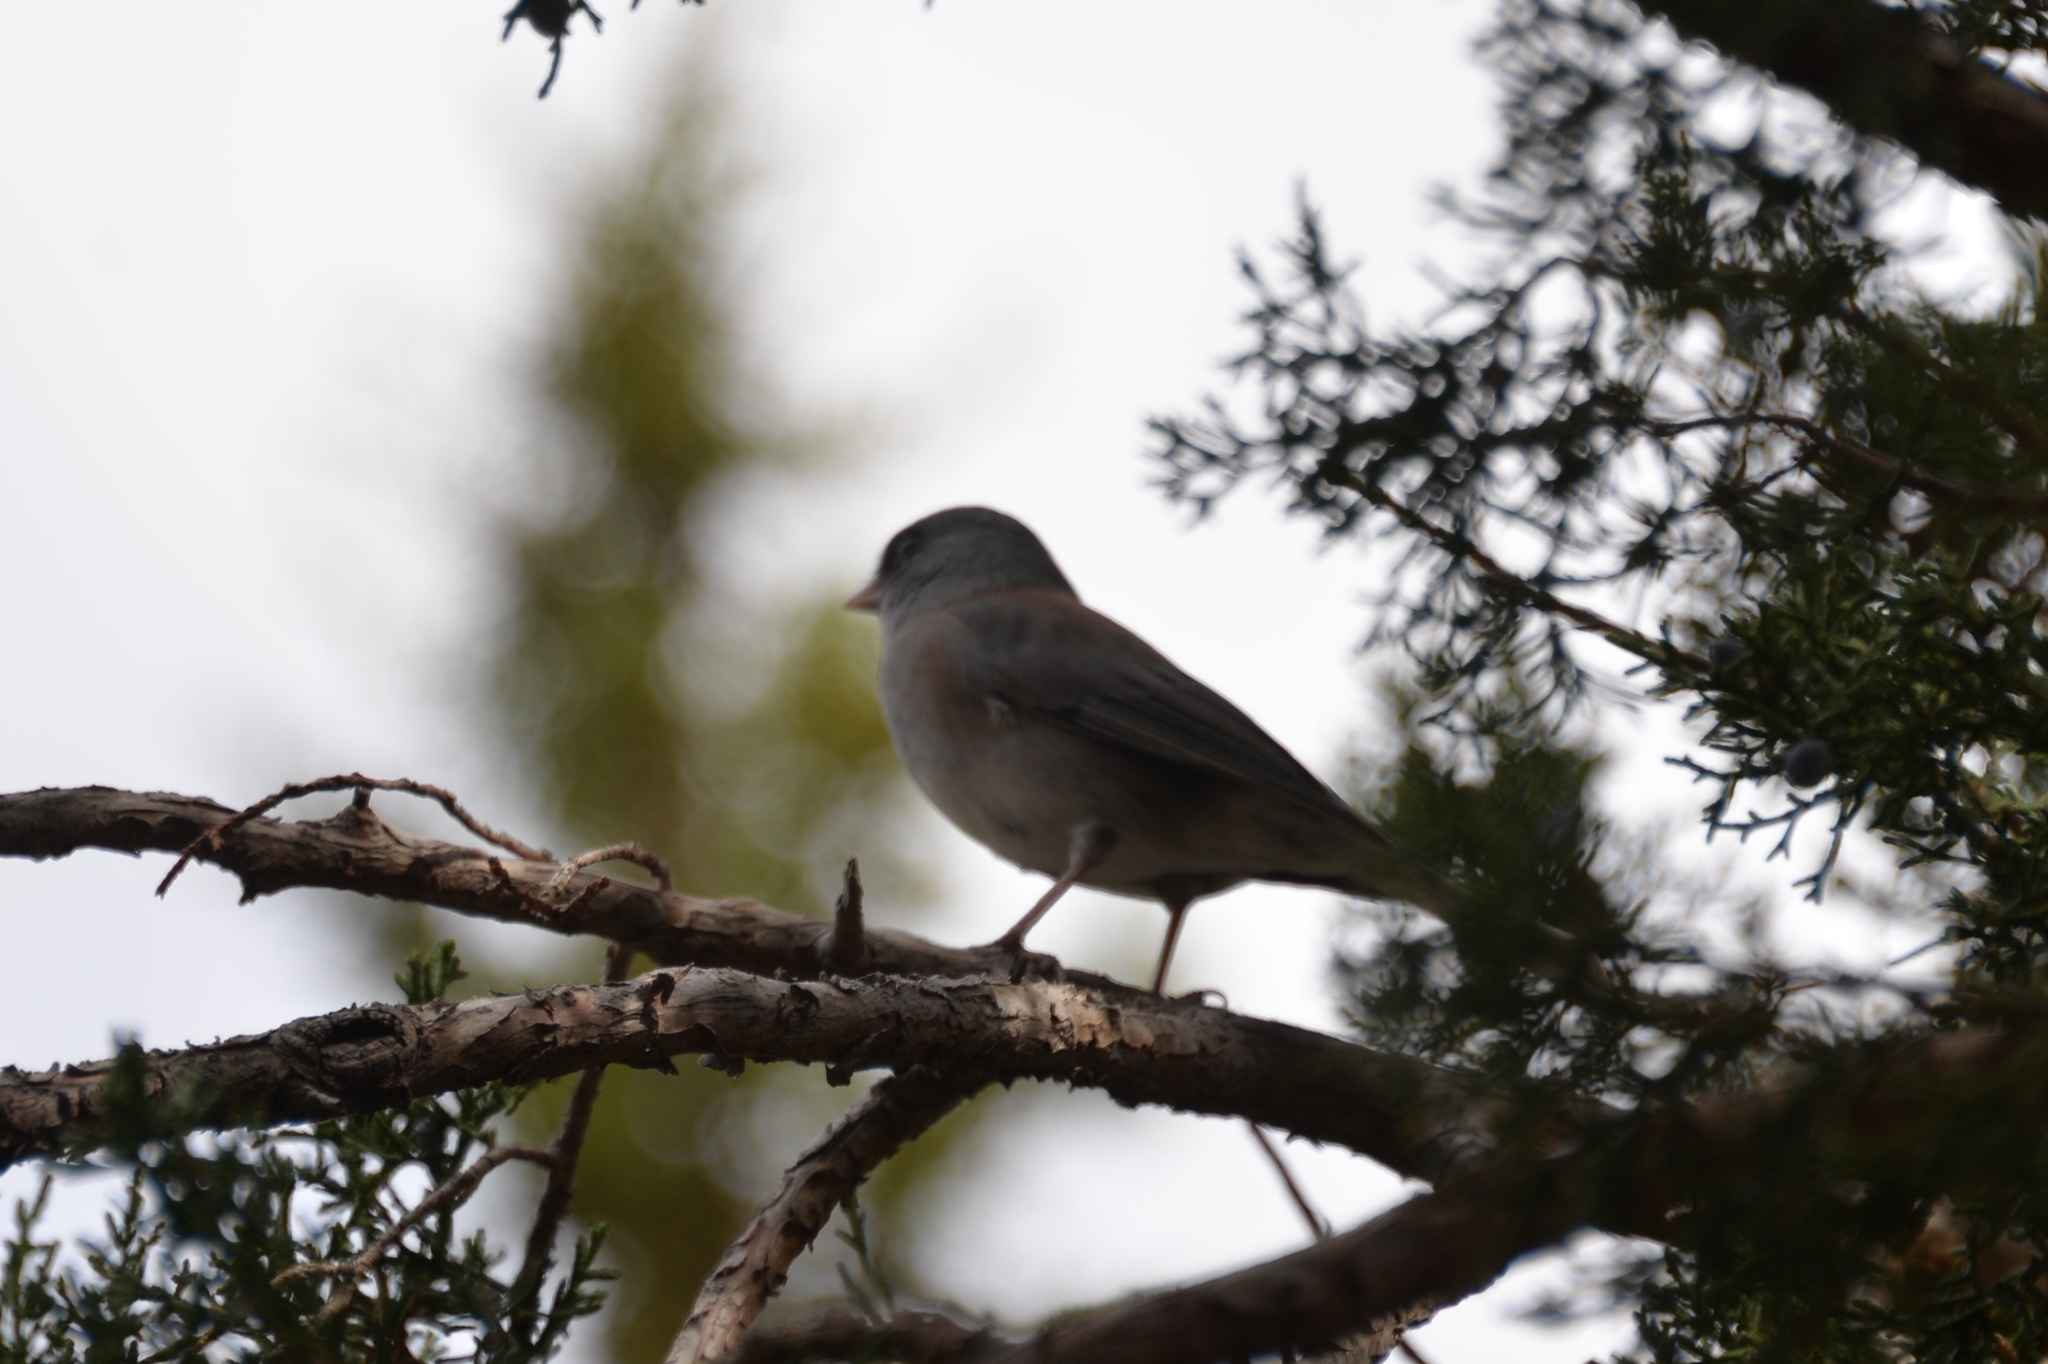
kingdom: Animalia
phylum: Chordata
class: Aves
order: Passeriformes
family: Passerellidae
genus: Junco
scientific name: Junco hyemalis
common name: Dark-eyed junco
